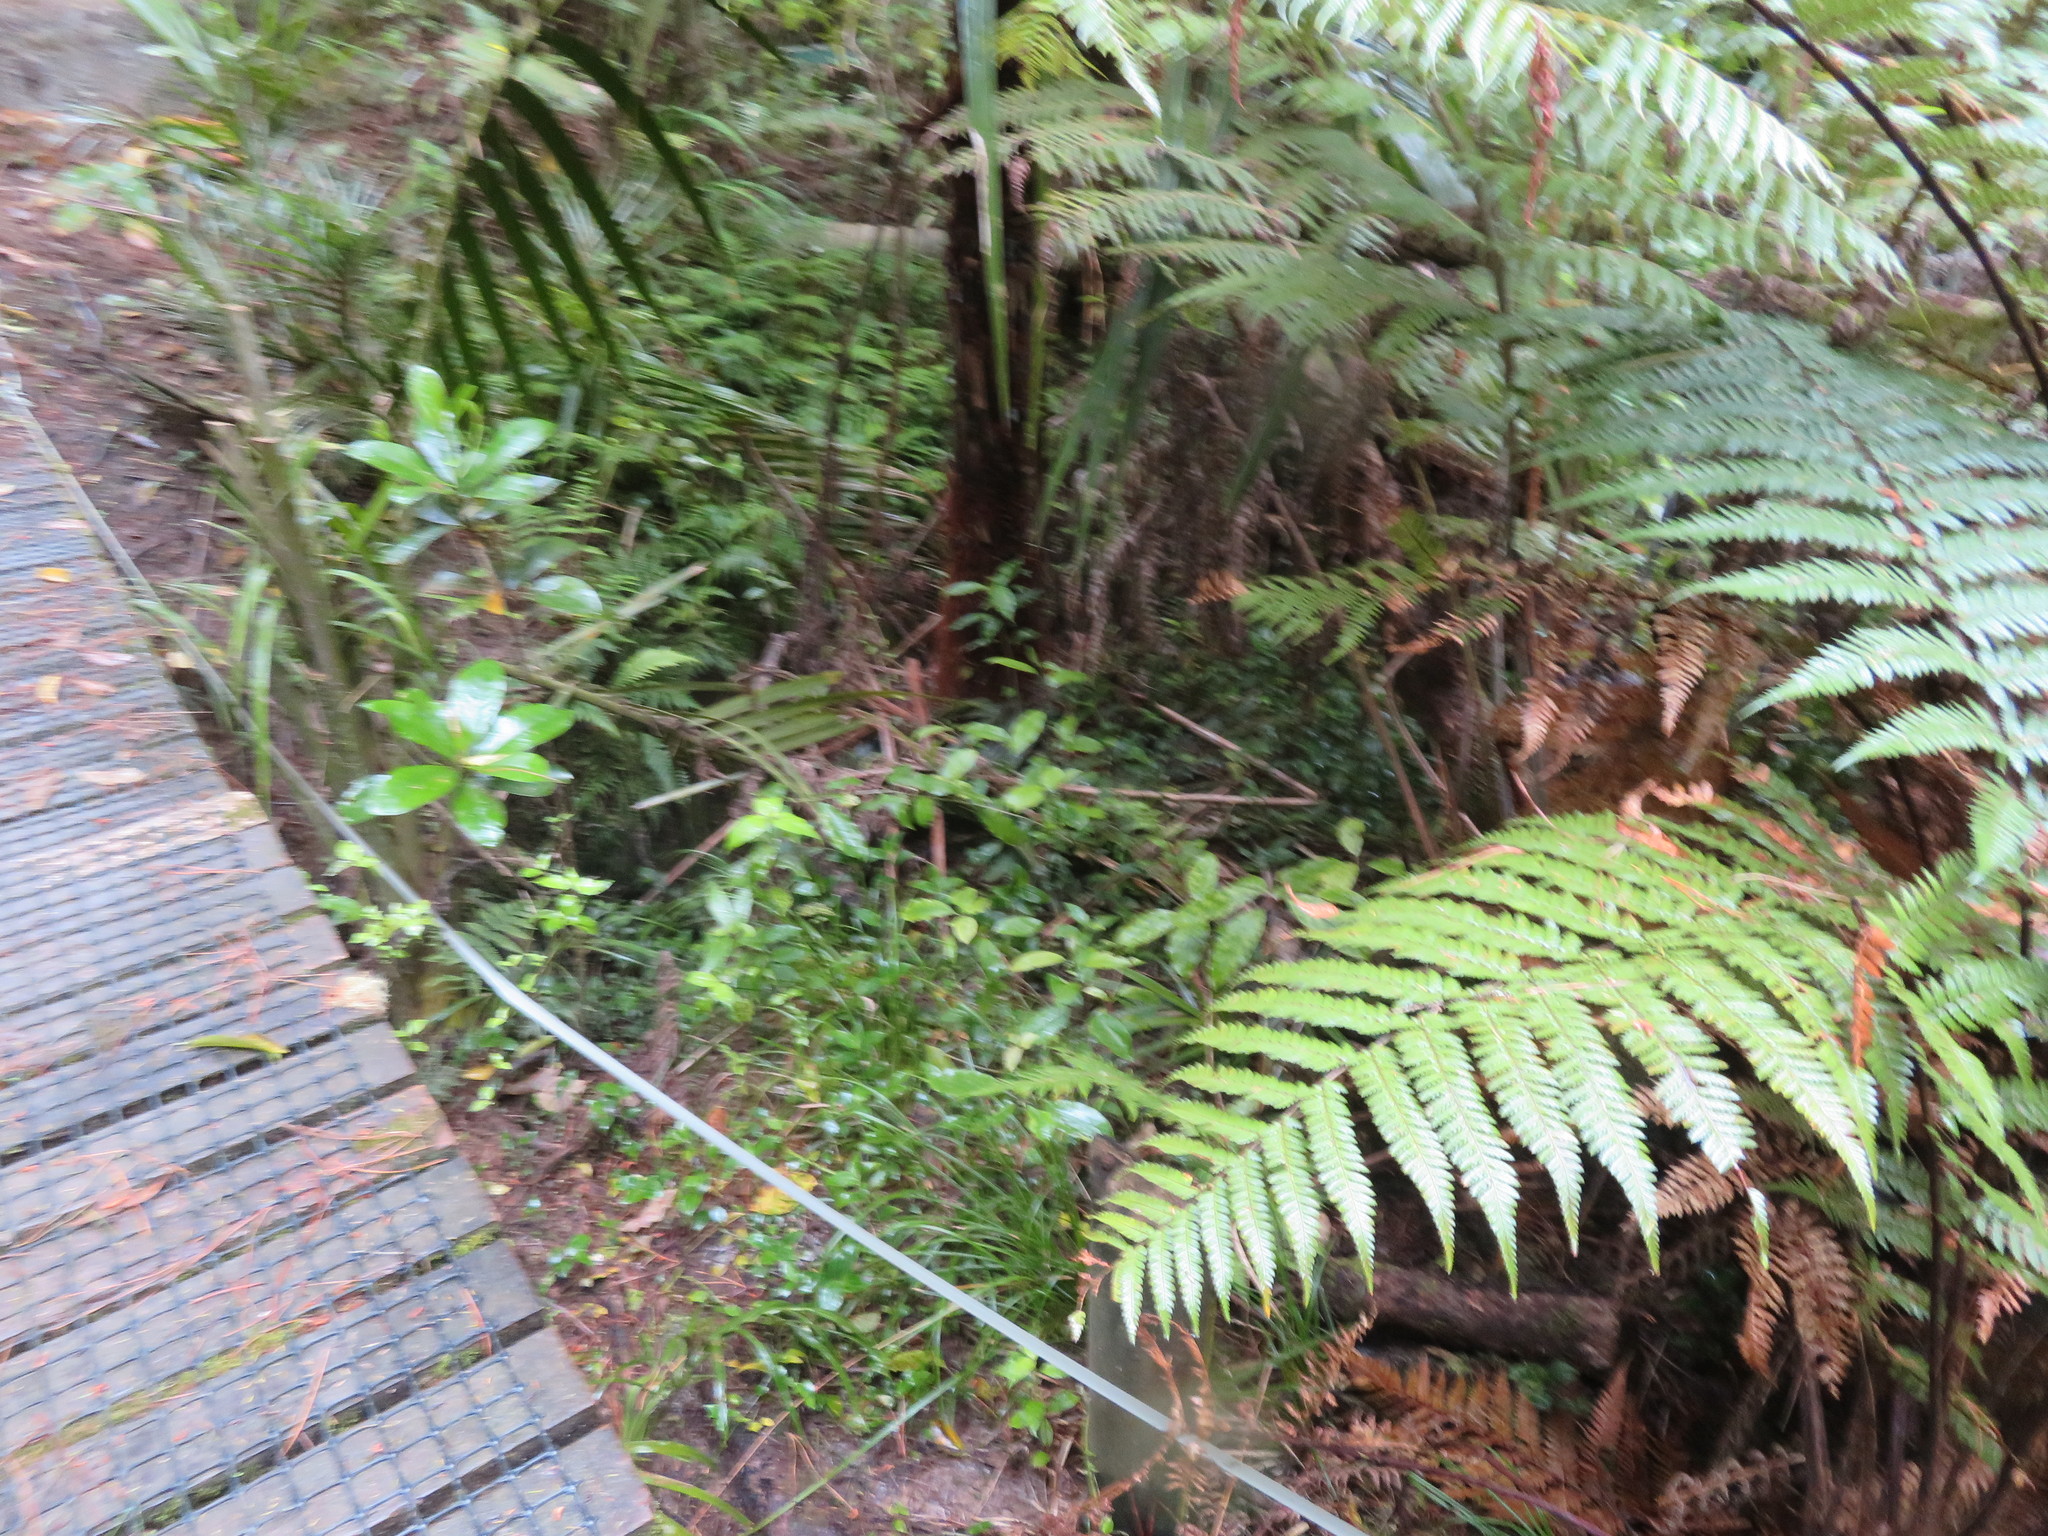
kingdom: Plantae
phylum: Tracheophyta
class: Liliopsida
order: Arecales
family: Arecaceae
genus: Rhopalostylis
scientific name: Rhopalostylis sapida
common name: Feather-duster palm
